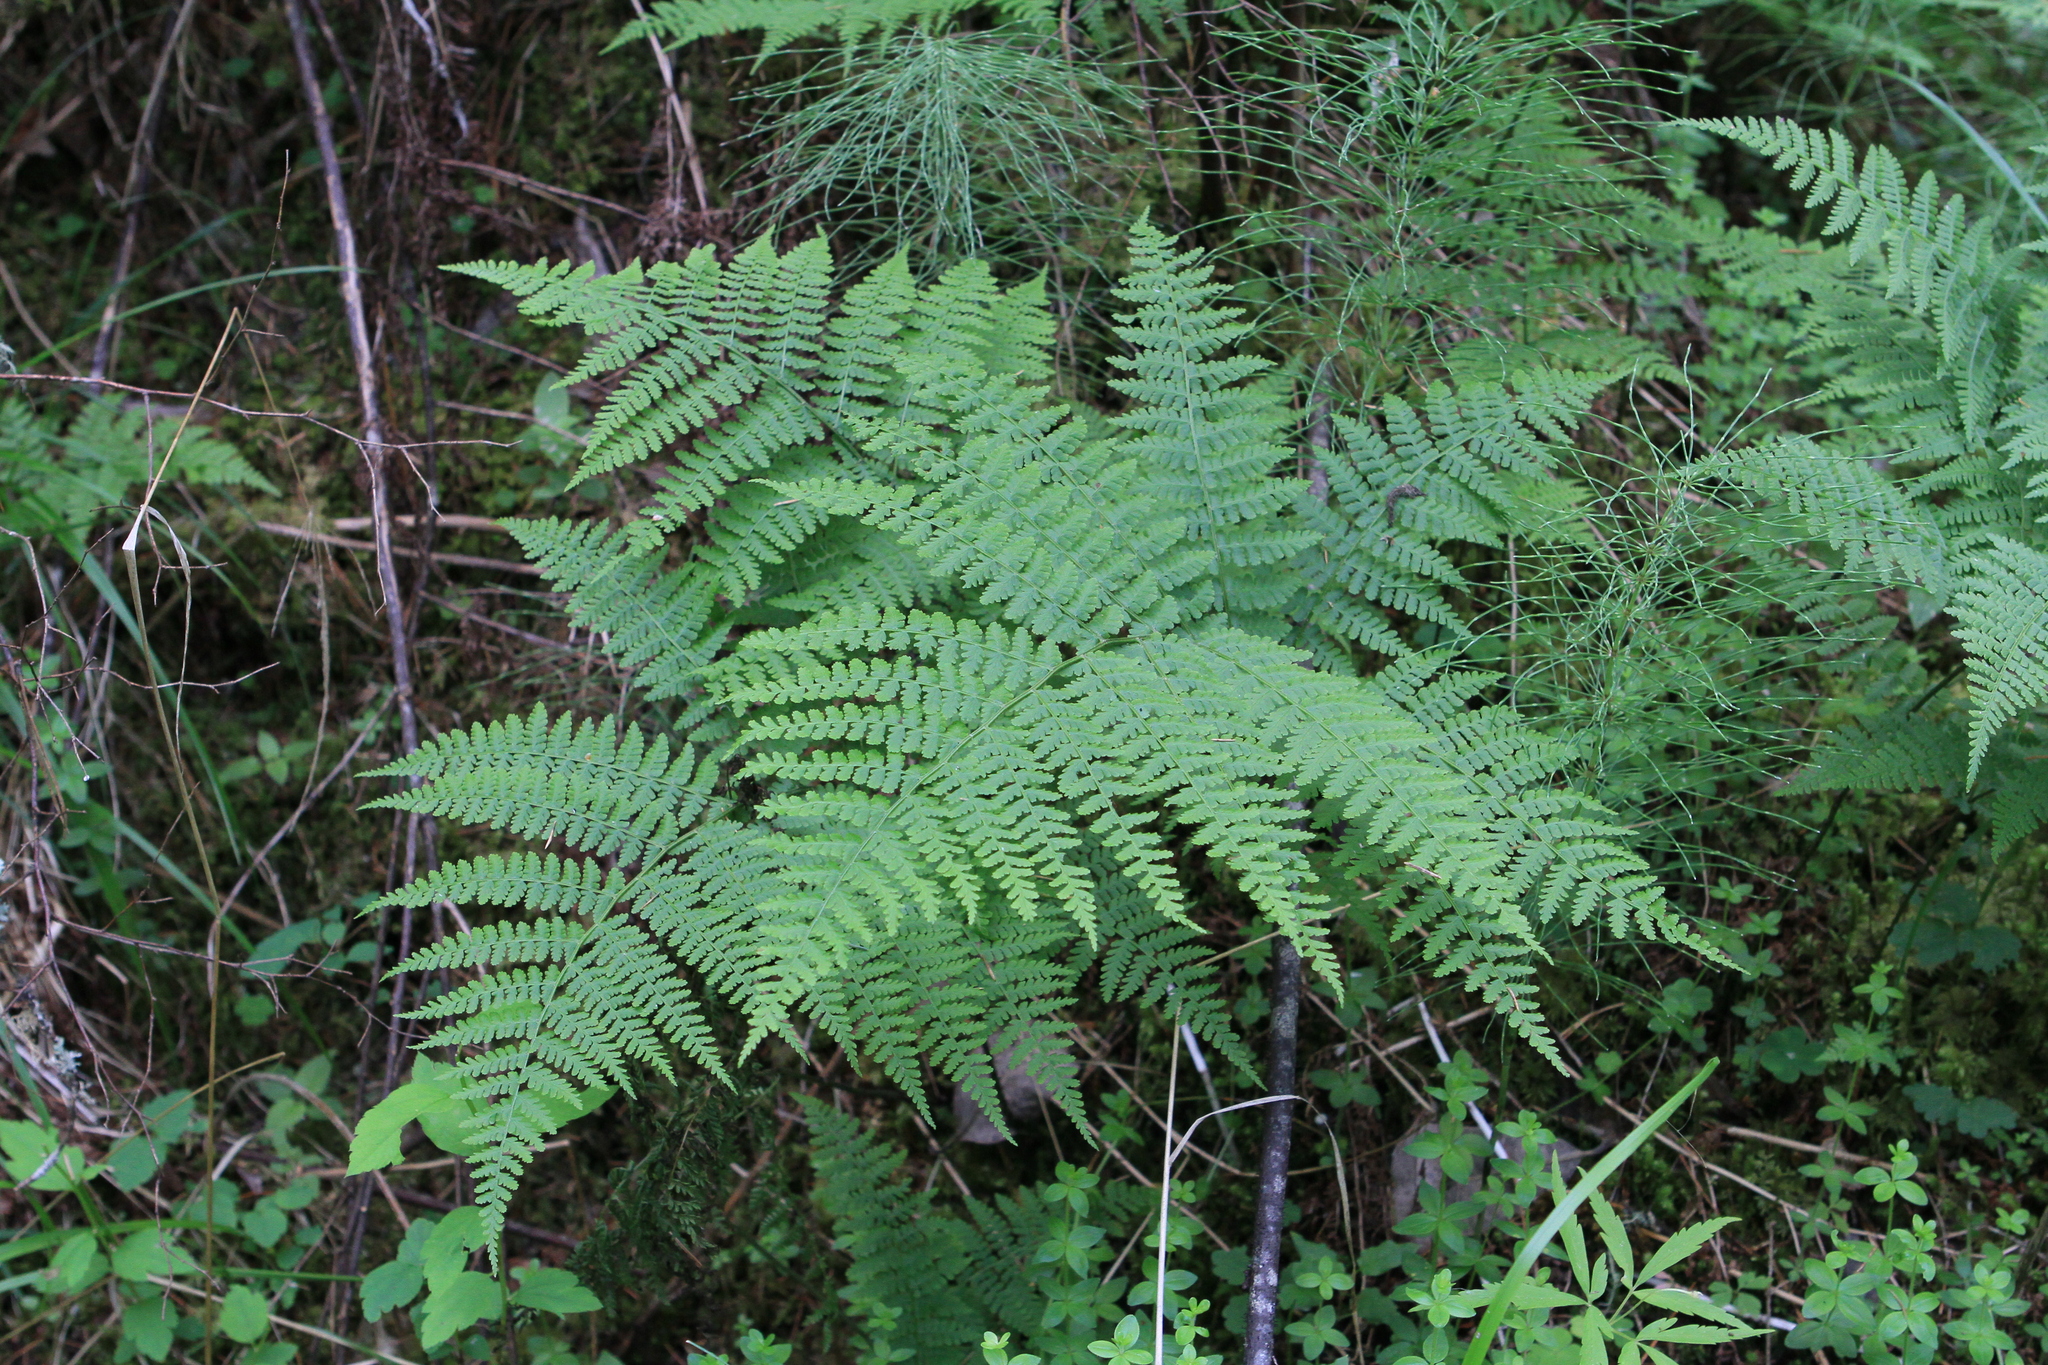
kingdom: Plantae
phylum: Tracheophyta
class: Polypodiopsida
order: Polypodiales
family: Athyriaceae
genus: Diplazium
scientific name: Diplazium sibiricum
